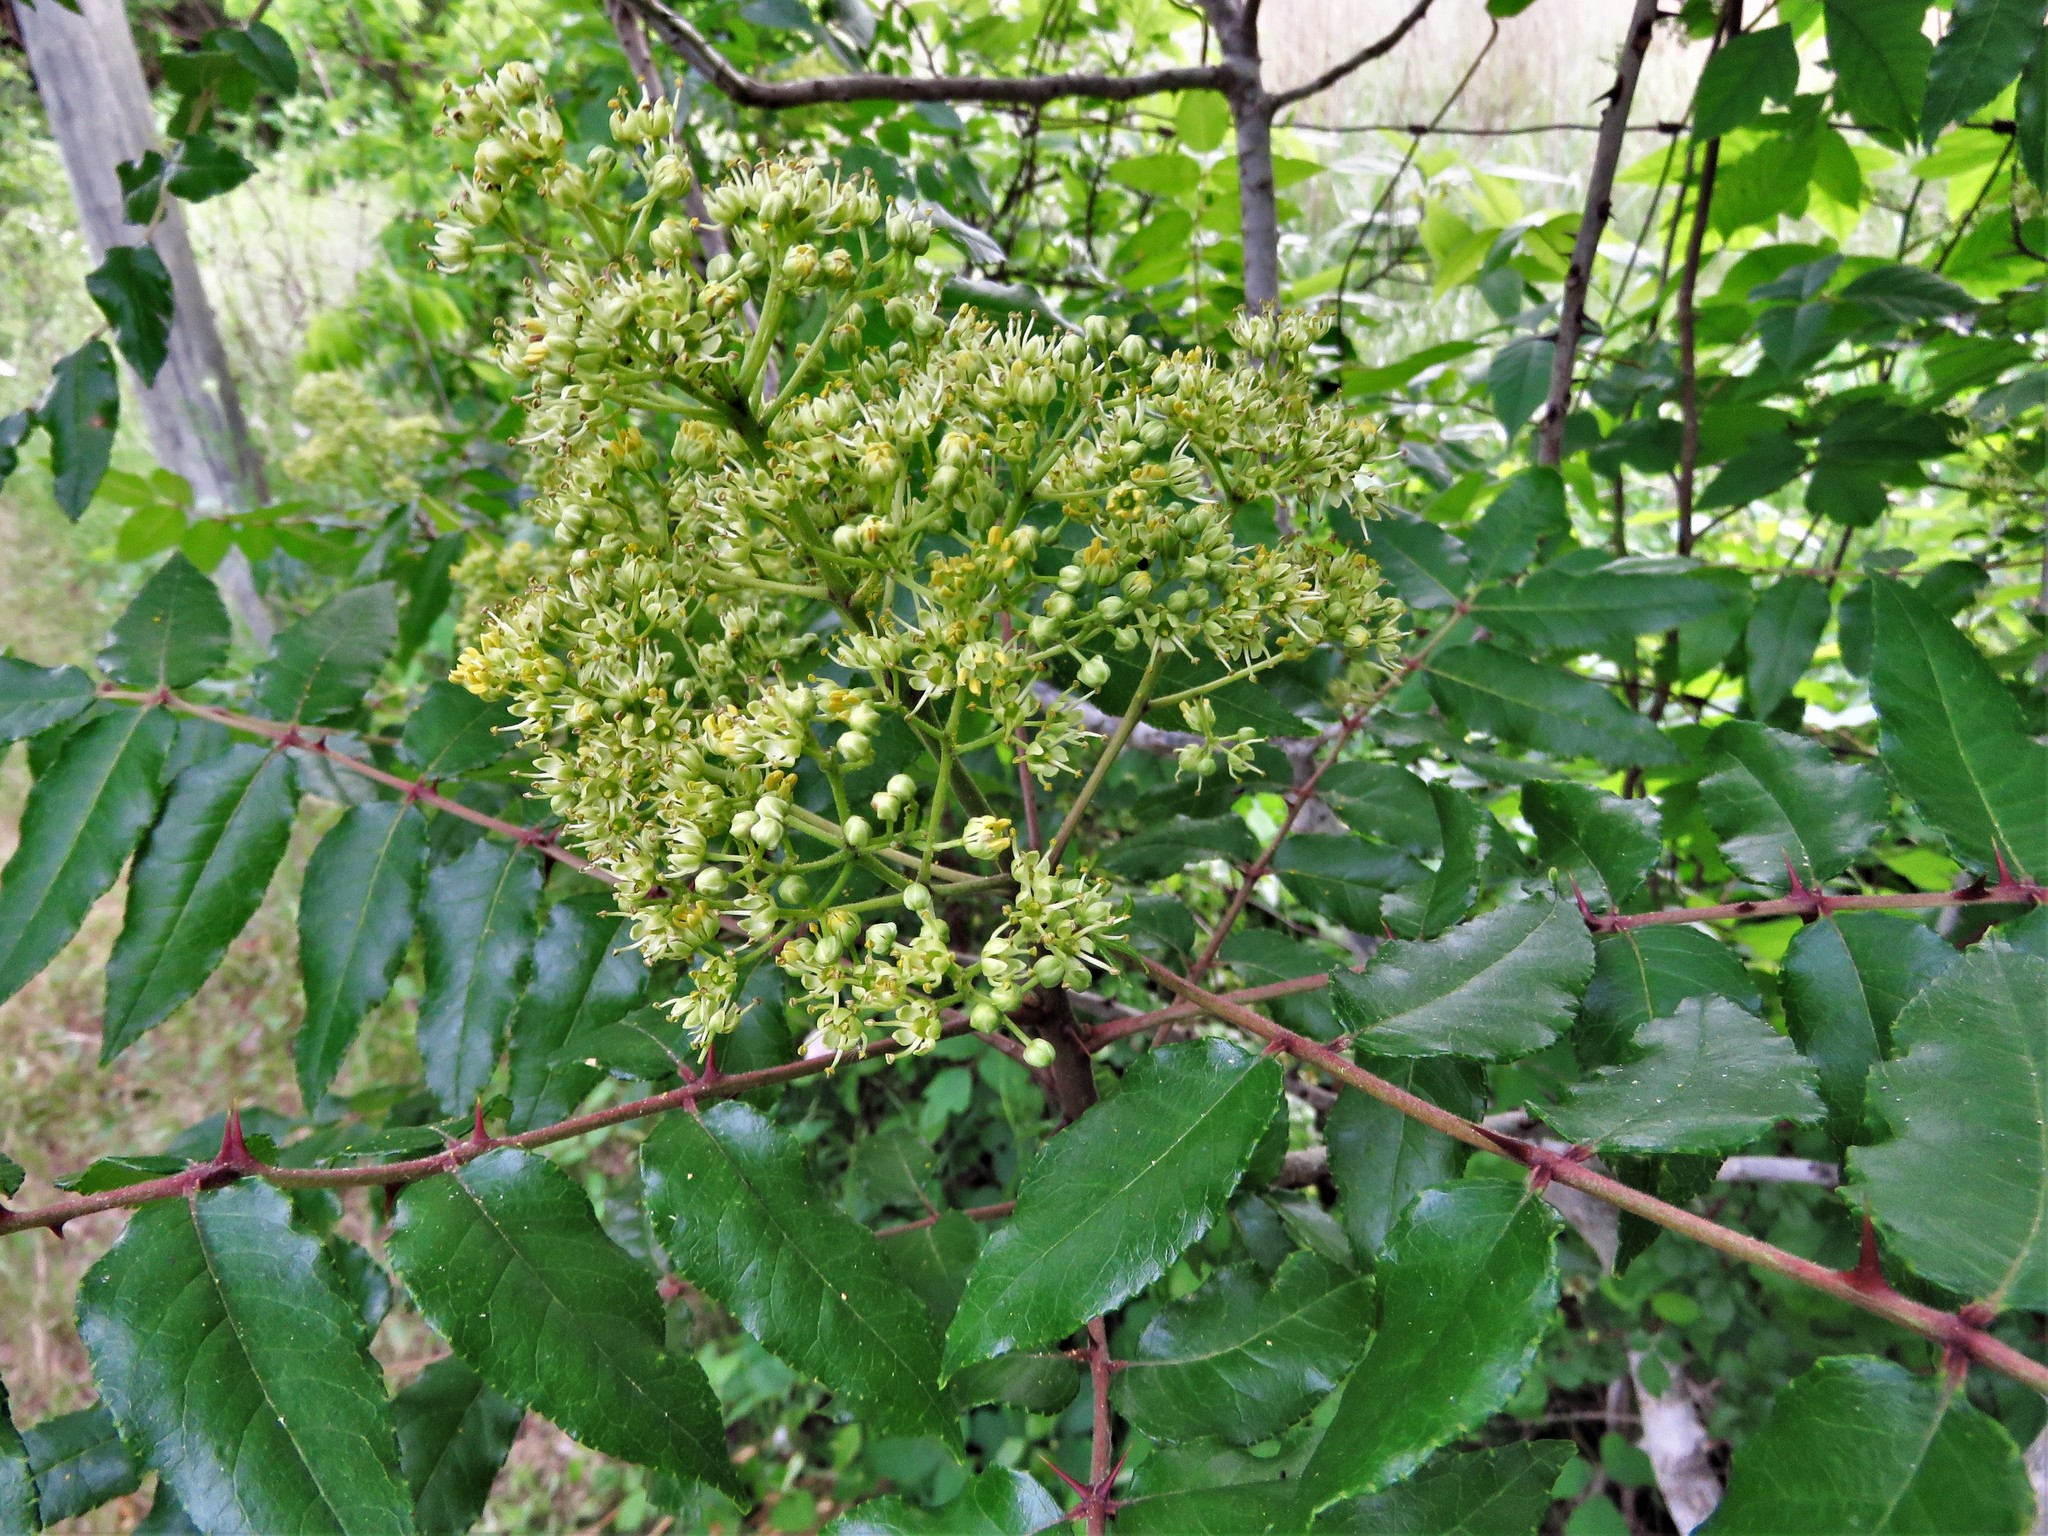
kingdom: Plantae
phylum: Tracheophyta
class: Magnoliopsida
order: Sapindales
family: Rutaceae
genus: Zanthoxylum
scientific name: Zanthoxylum clava-herculis
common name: Hercules'-club
